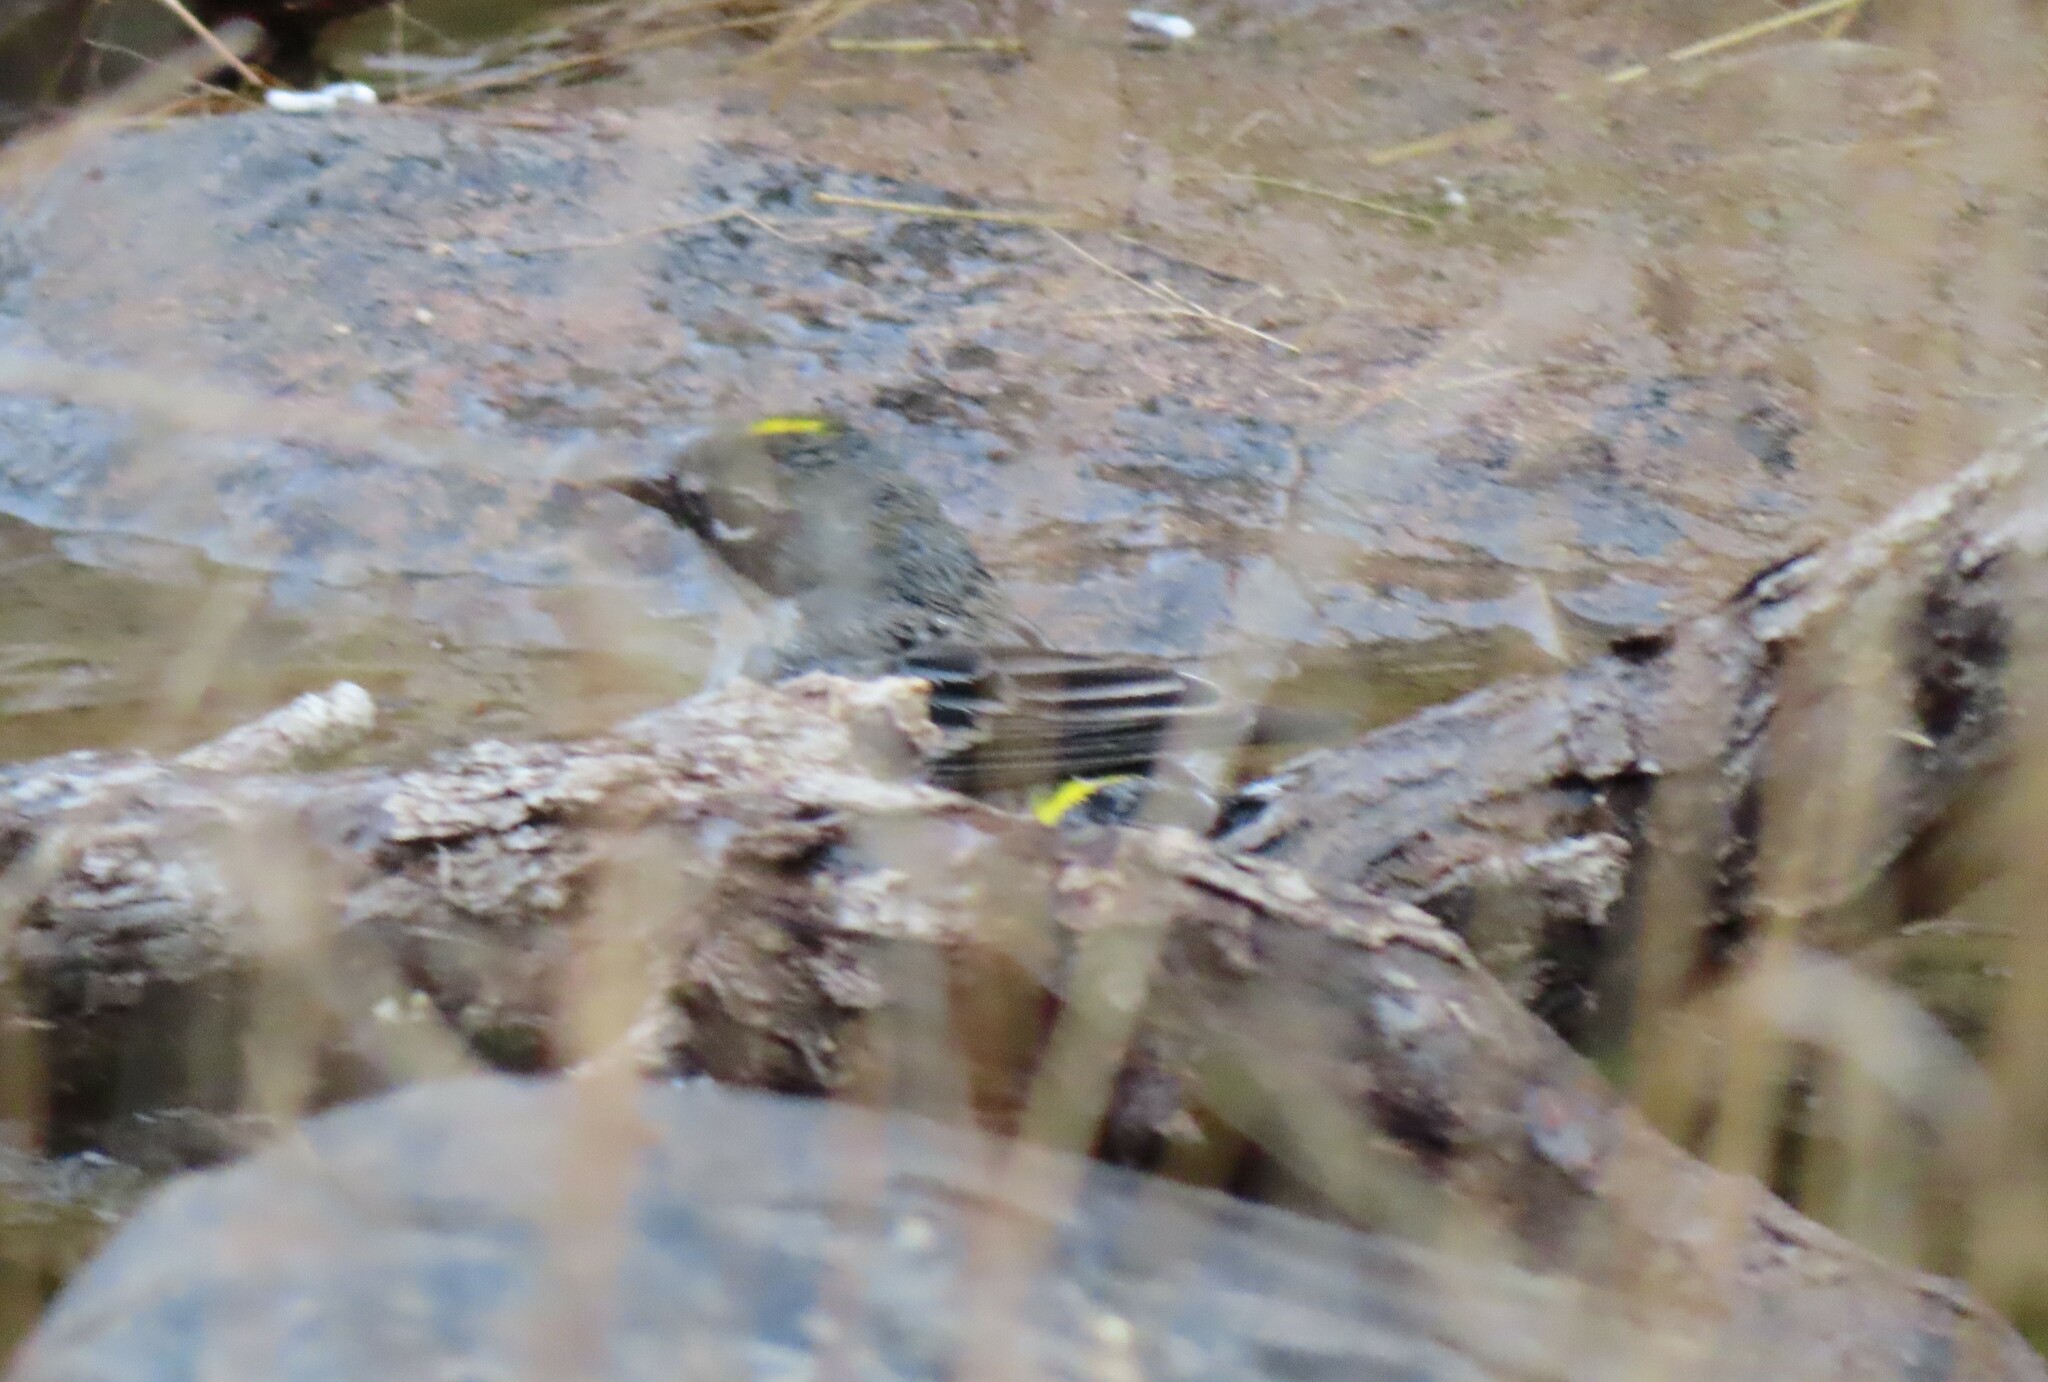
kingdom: Animalia
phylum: Chordata
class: Aves
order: Passeriformes
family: Parulidae
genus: Setophaga
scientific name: Setophaga coronata
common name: Myrtle warbler
